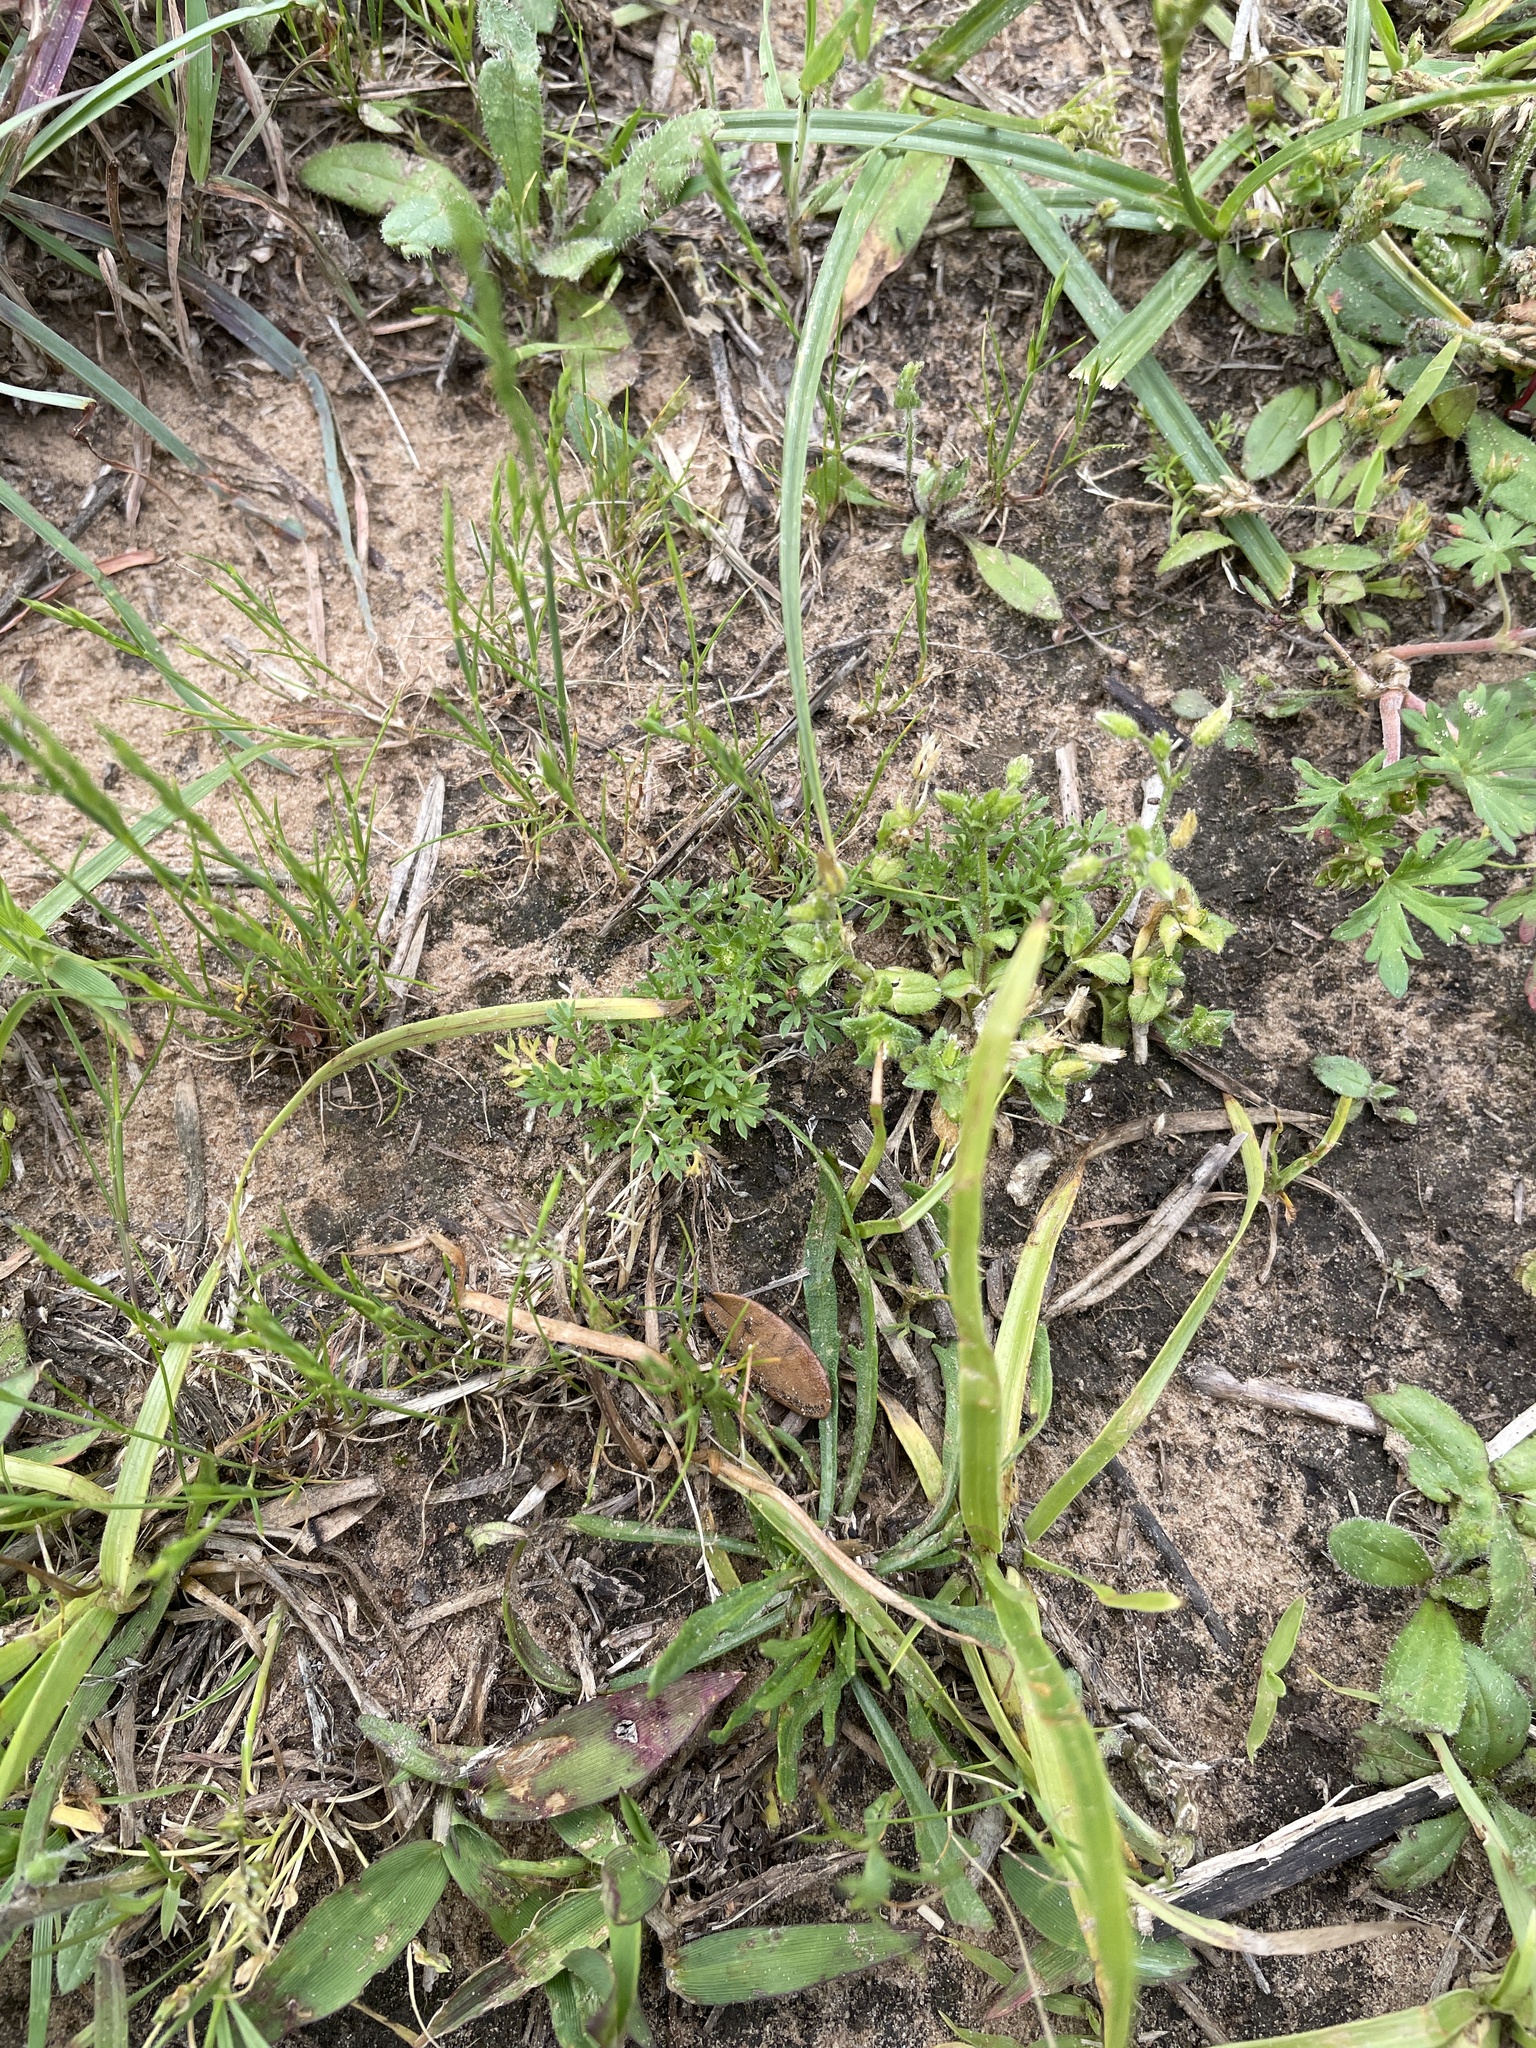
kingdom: Plantae
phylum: Tracheophyta
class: Magnoliopsida
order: Asterales
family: Asteraceae
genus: Soliva
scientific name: Soliva sessilis
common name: Field burrweed
